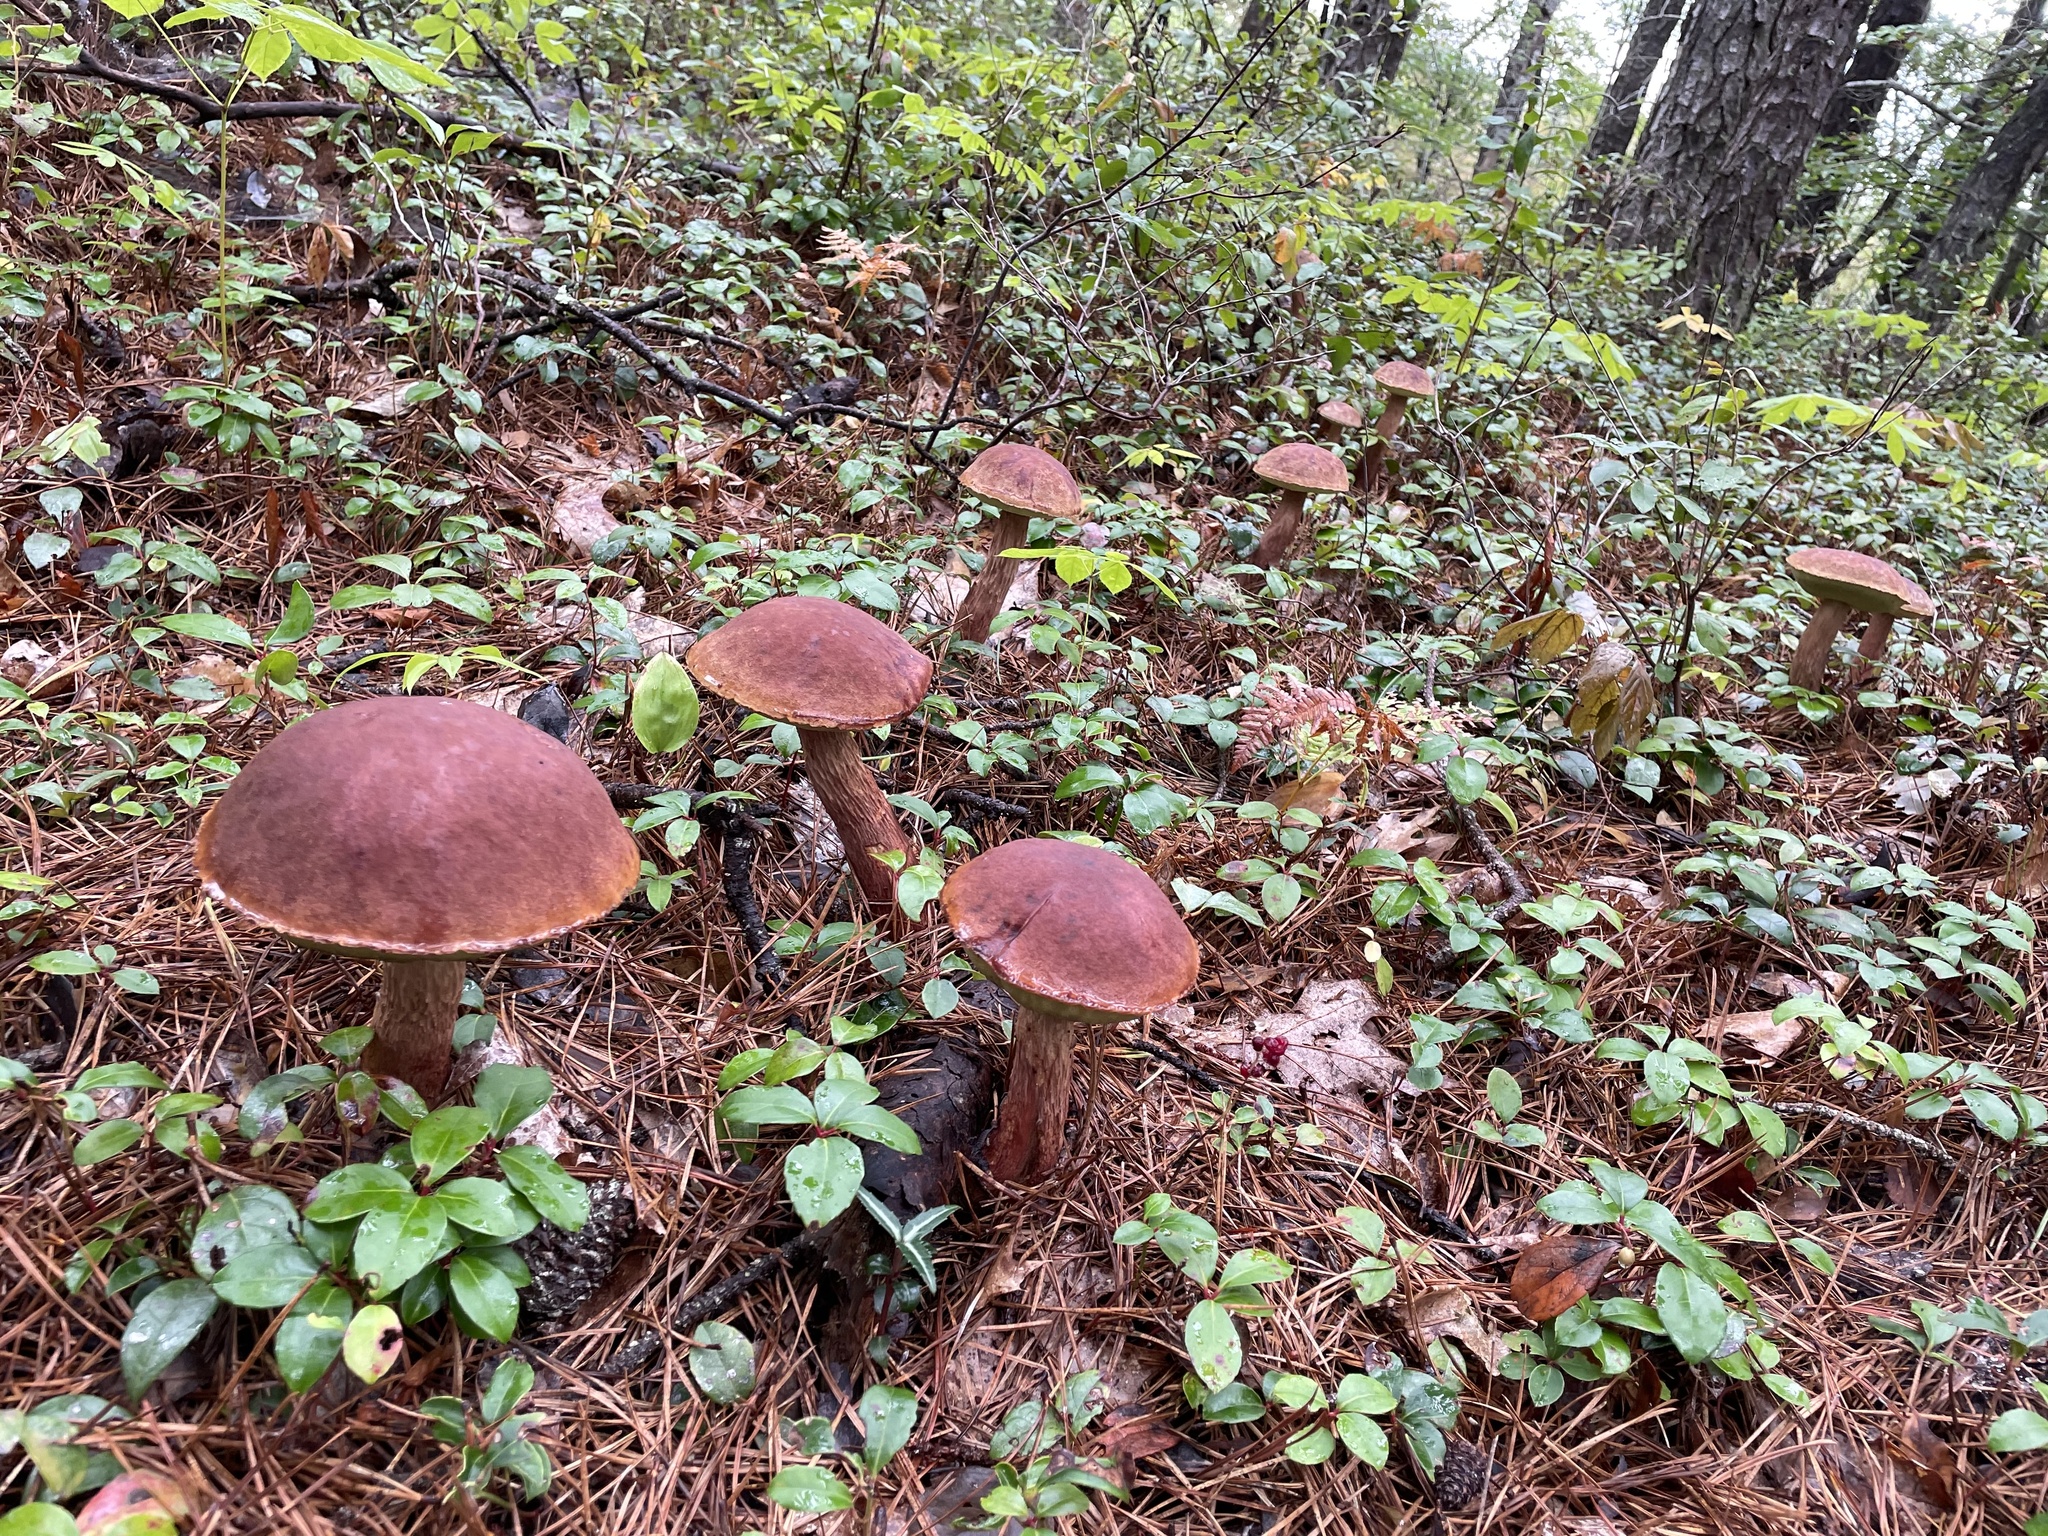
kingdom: Fungi
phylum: Basidiomycota
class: Agaricomycetes
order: Boletales
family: Boletaceae
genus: Aureoboletus
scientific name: Aureoboletus projectellus
